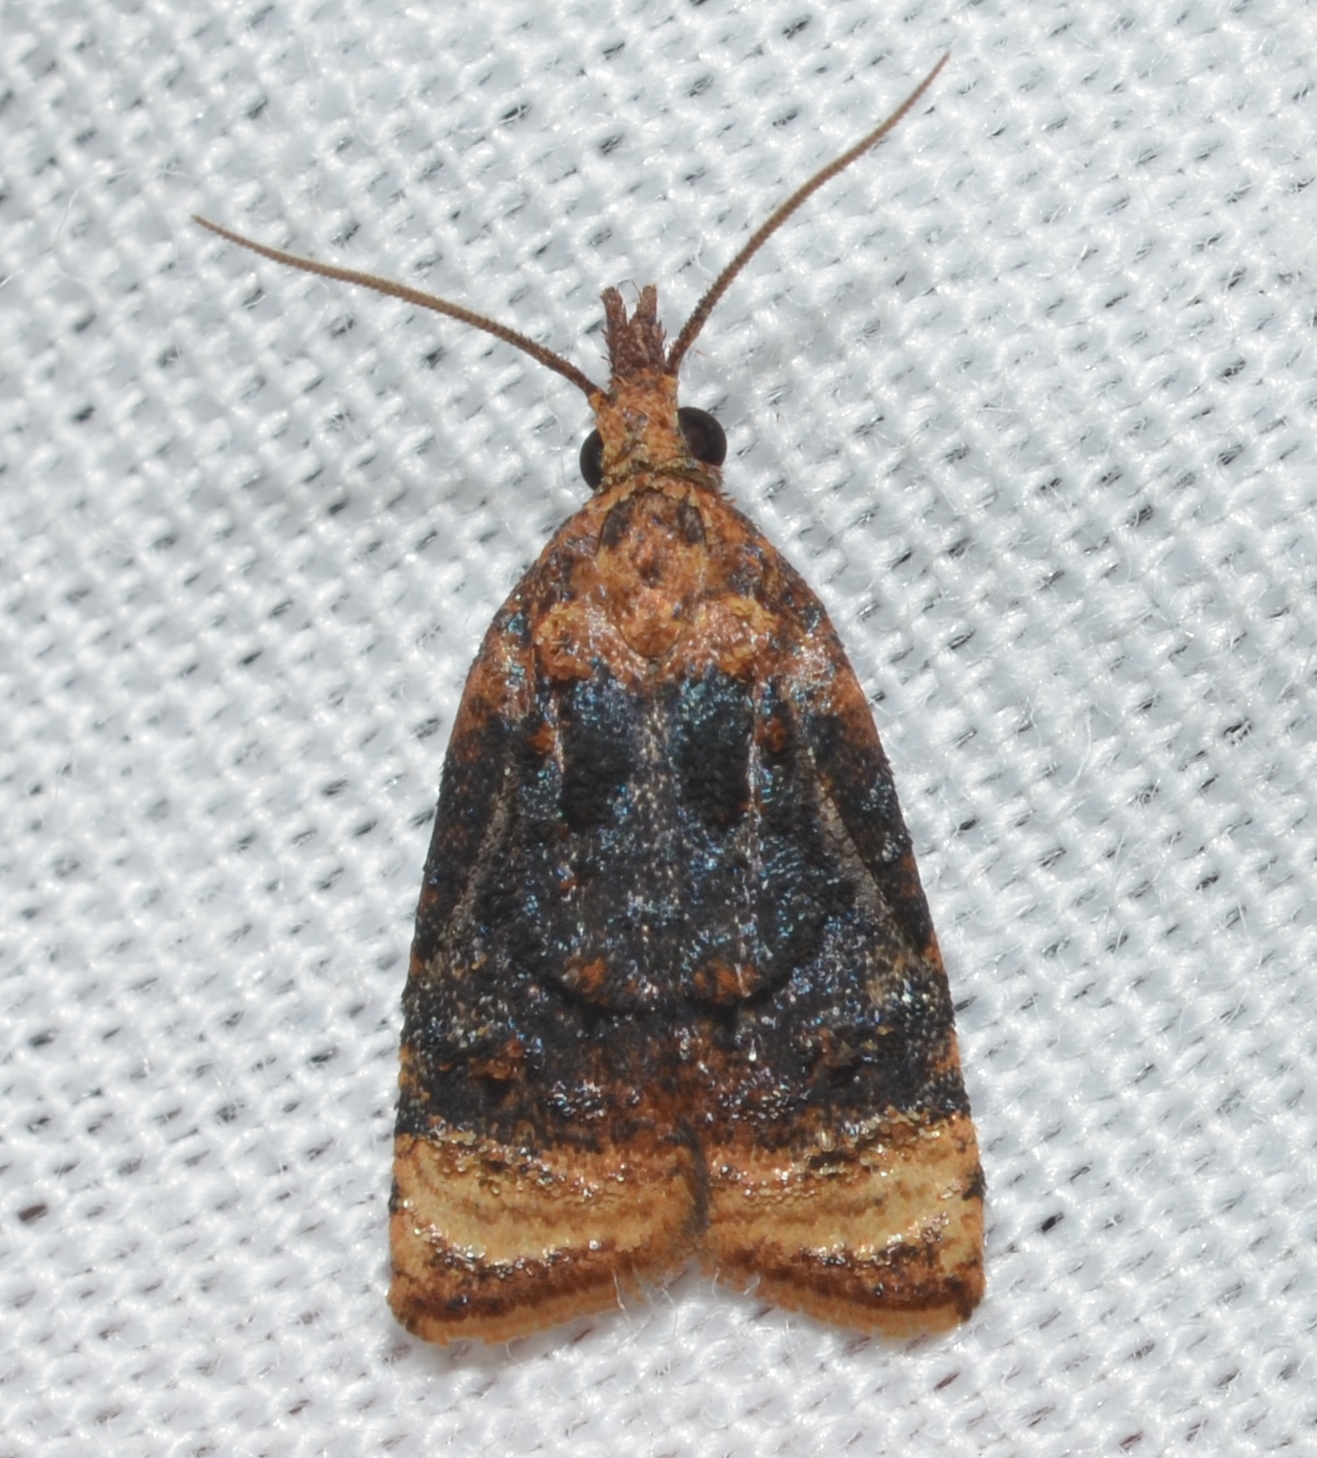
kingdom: Animalia
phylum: Arthropoda
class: Insecta
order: Lepidoptera
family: Tortricidae
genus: Platynota
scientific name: Platynota flavedana
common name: Black-shaded platynota moth
